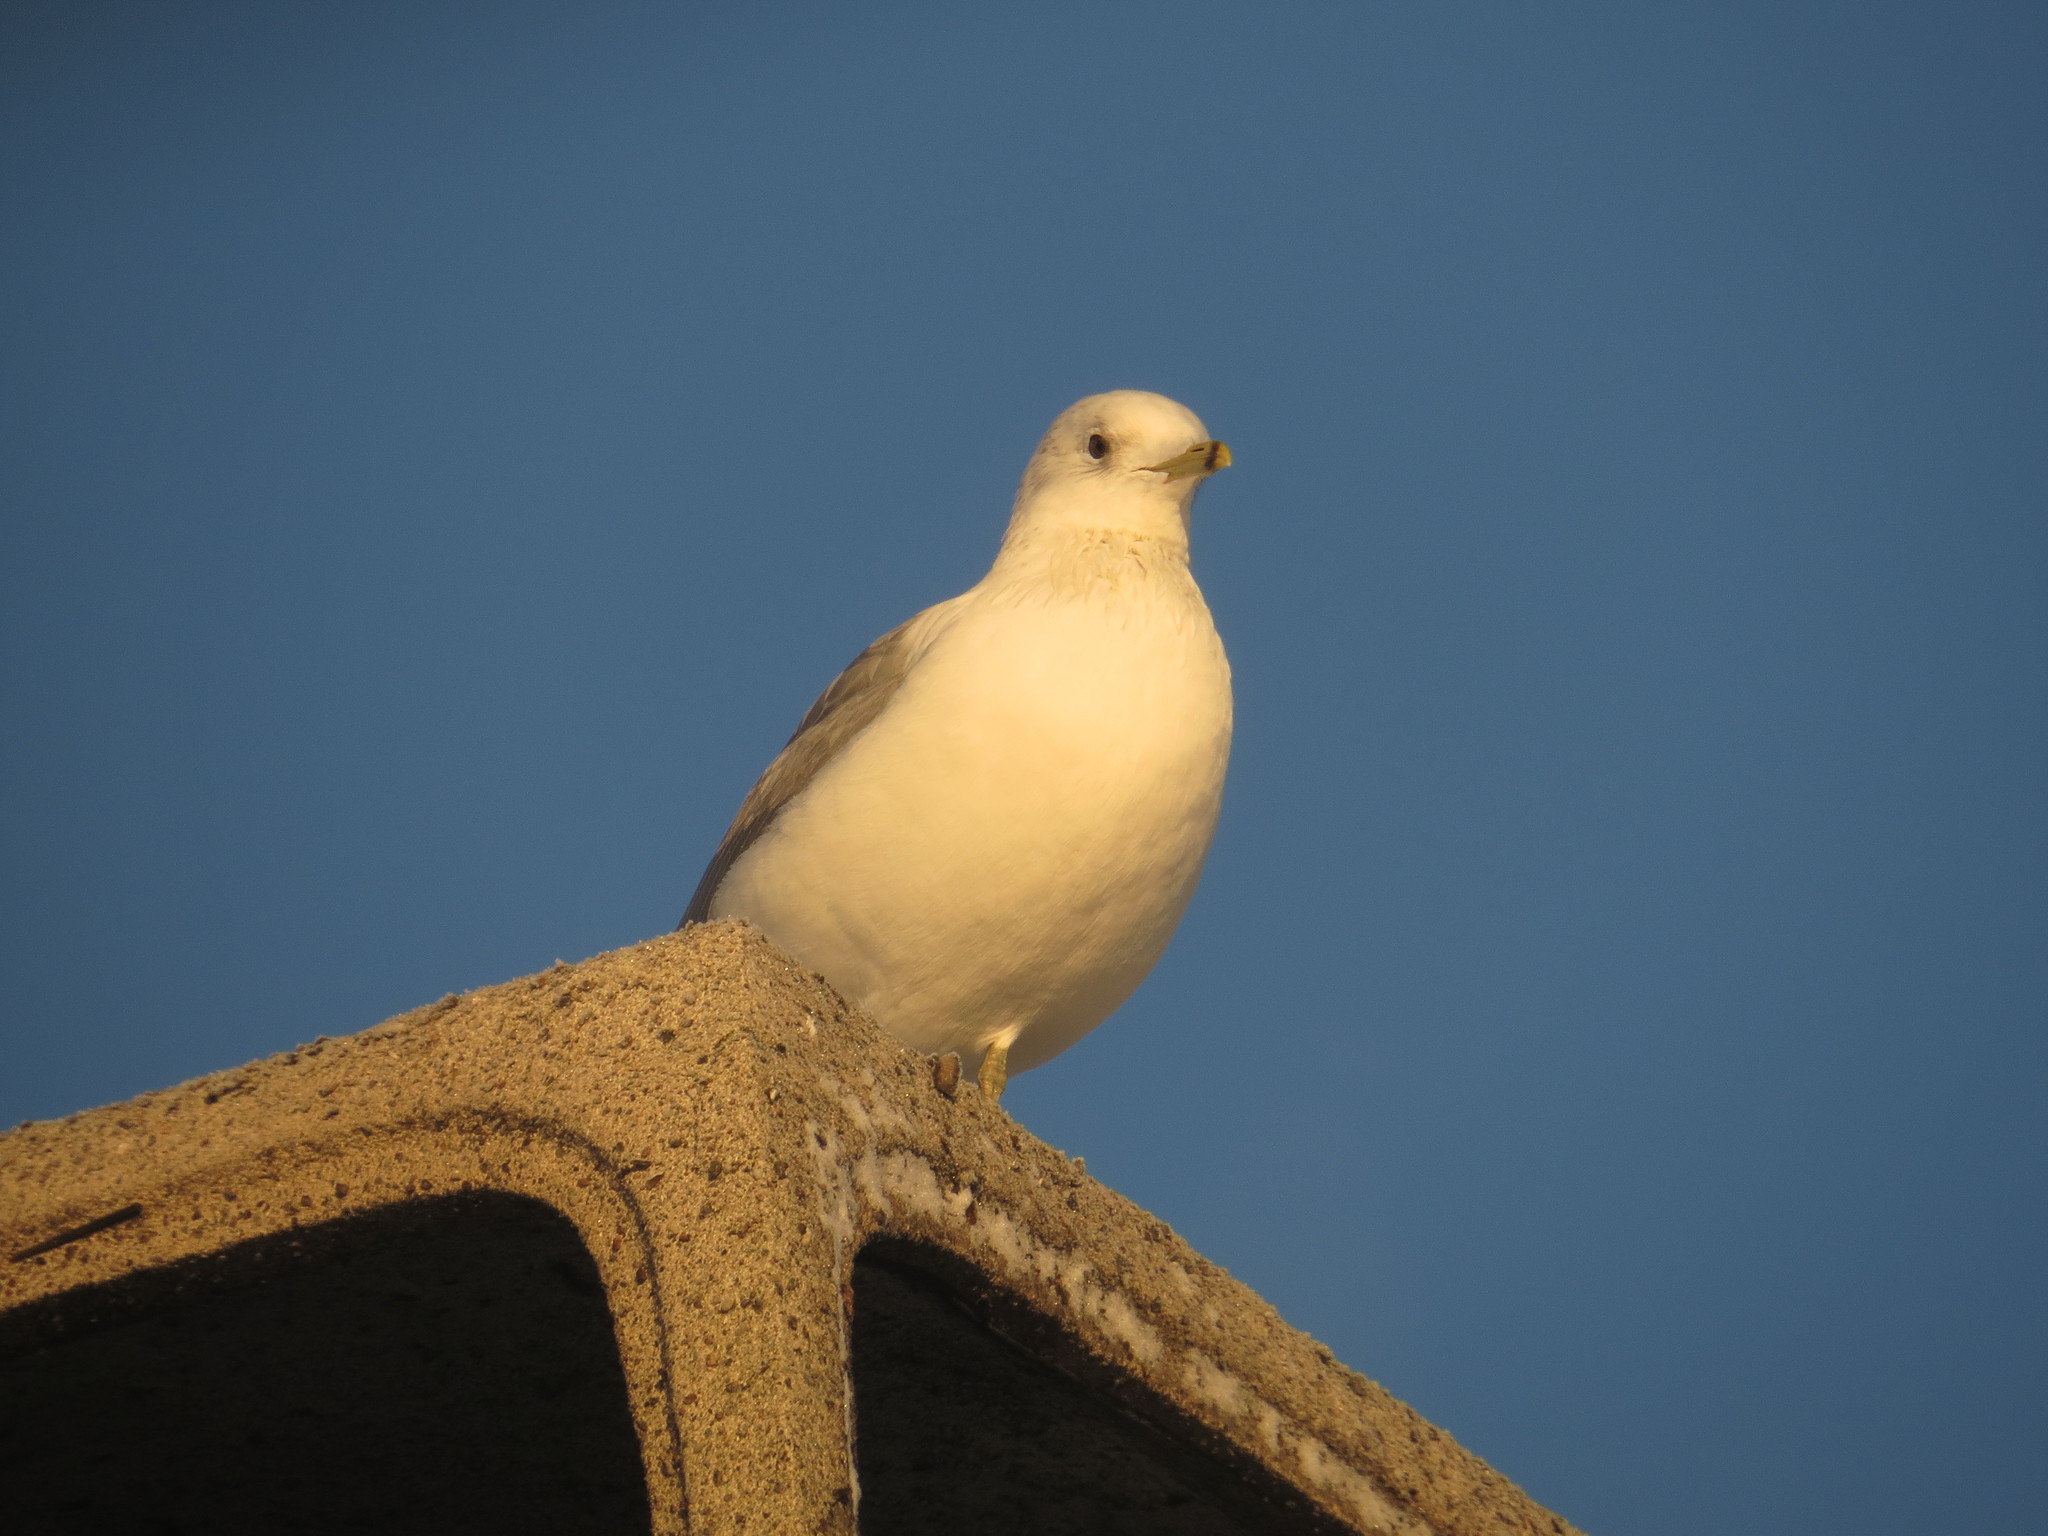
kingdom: Animalia
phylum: Chordata
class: Aves
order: Charadriiformes
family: Laridae
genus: Larus
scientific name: Larus canus
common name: Mew gull
